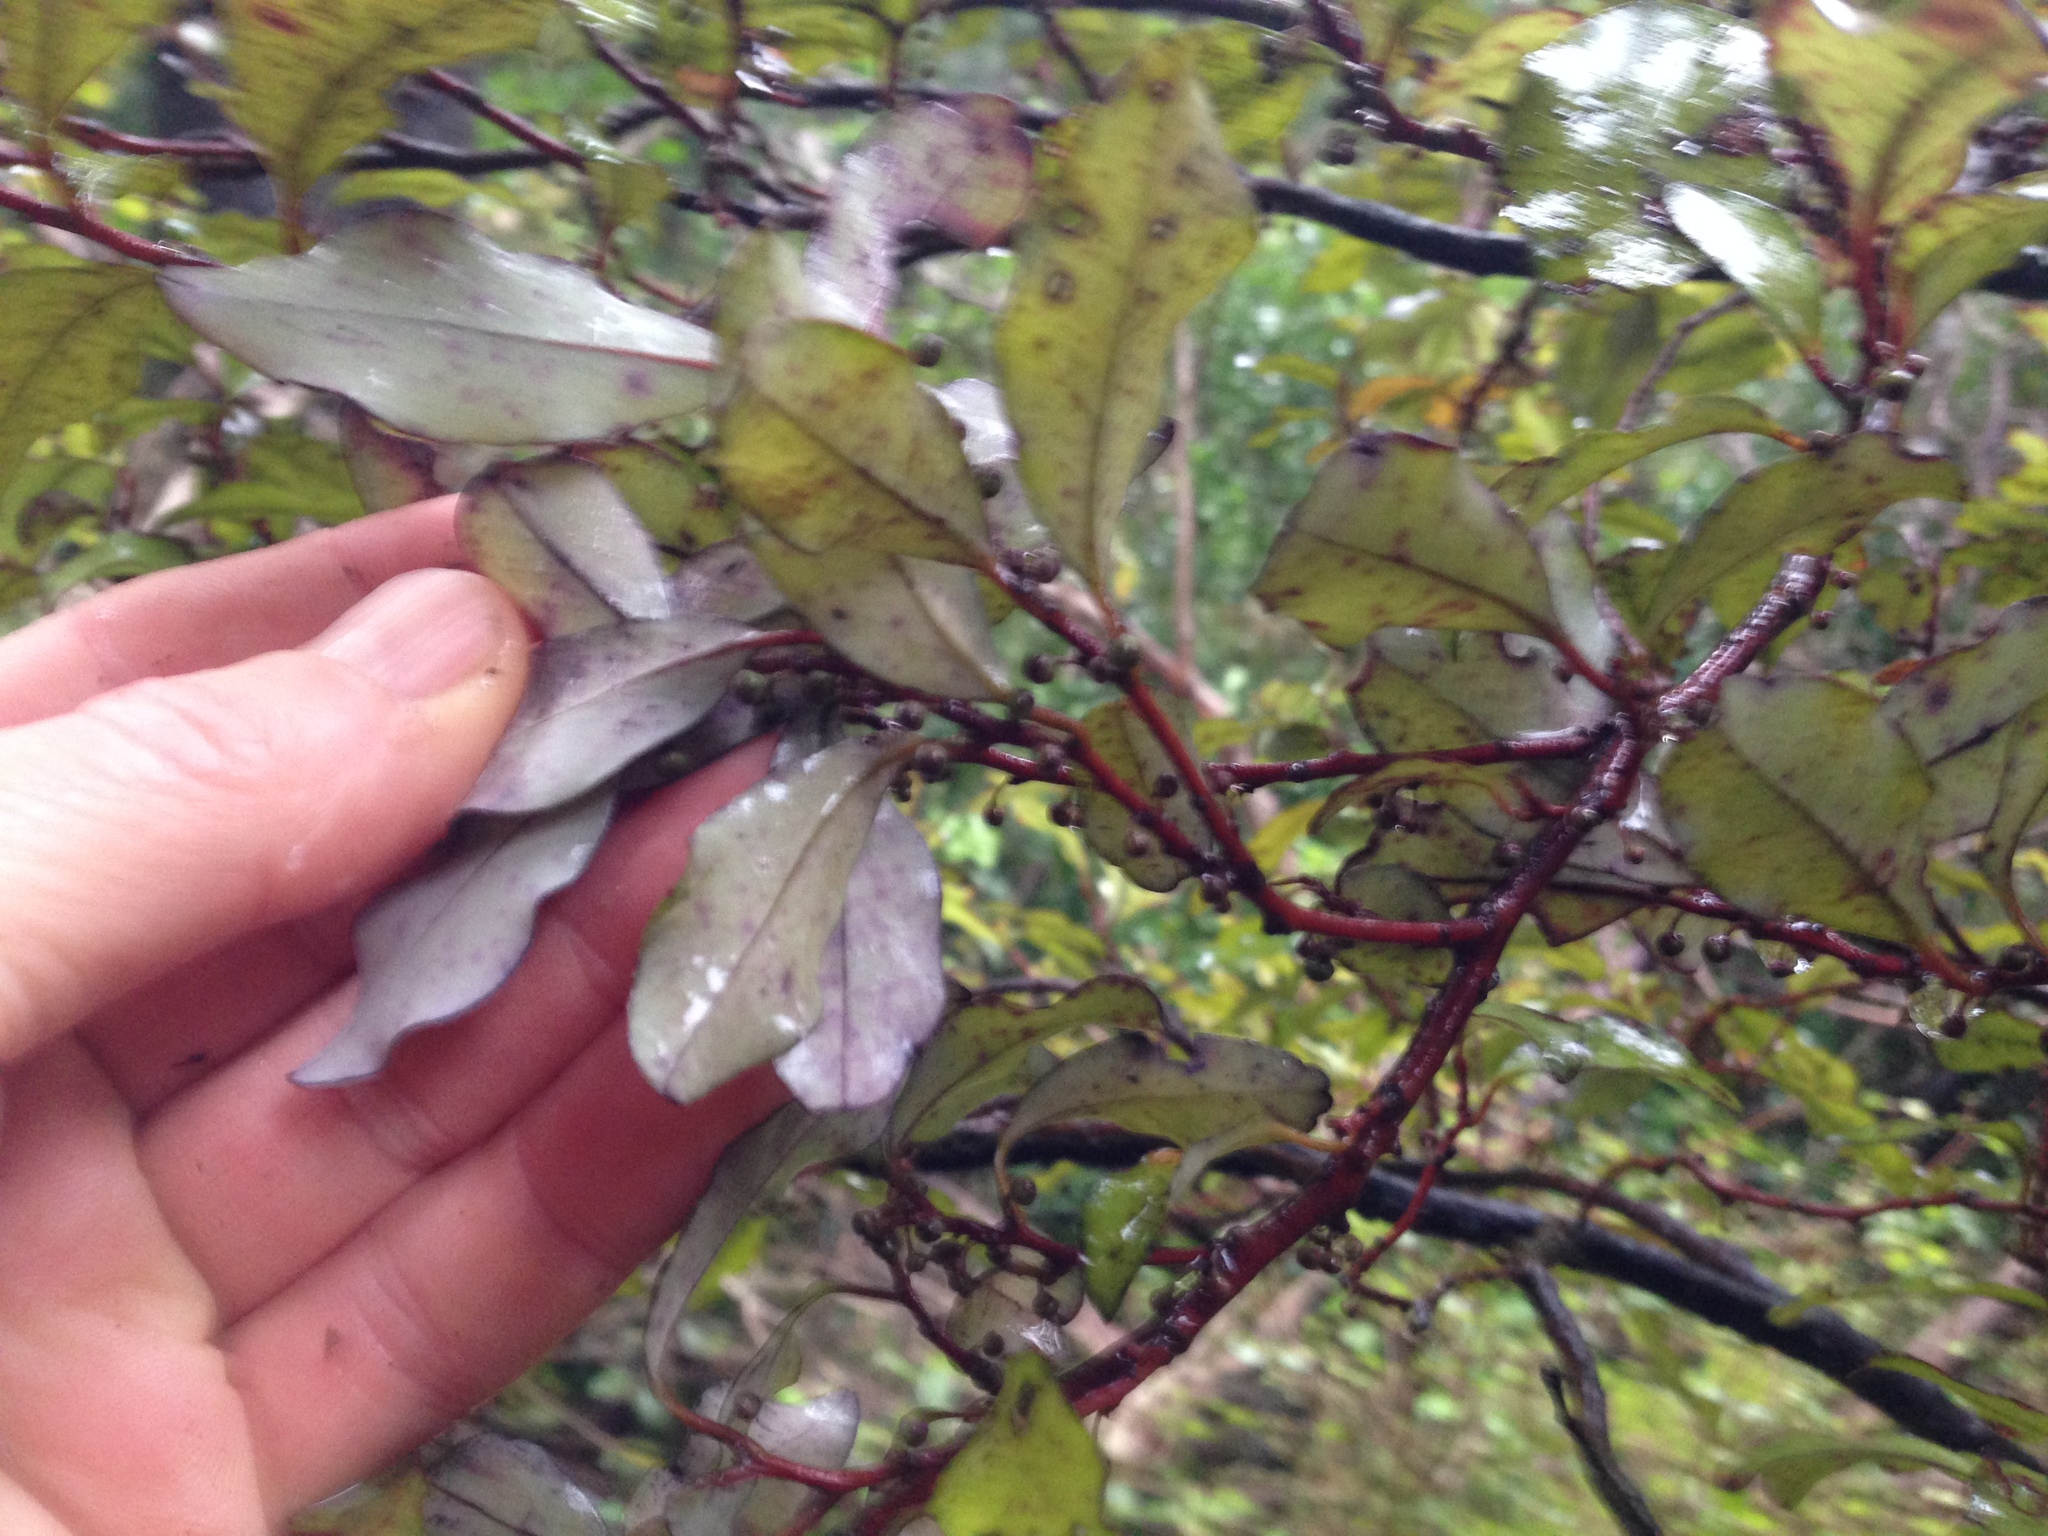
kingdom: Plantae
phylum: Tracheophyta
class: Magnoliopsida
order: Canellales
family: Winteraceae
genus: Pseudowintera
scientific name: Pseudowintera colorata
